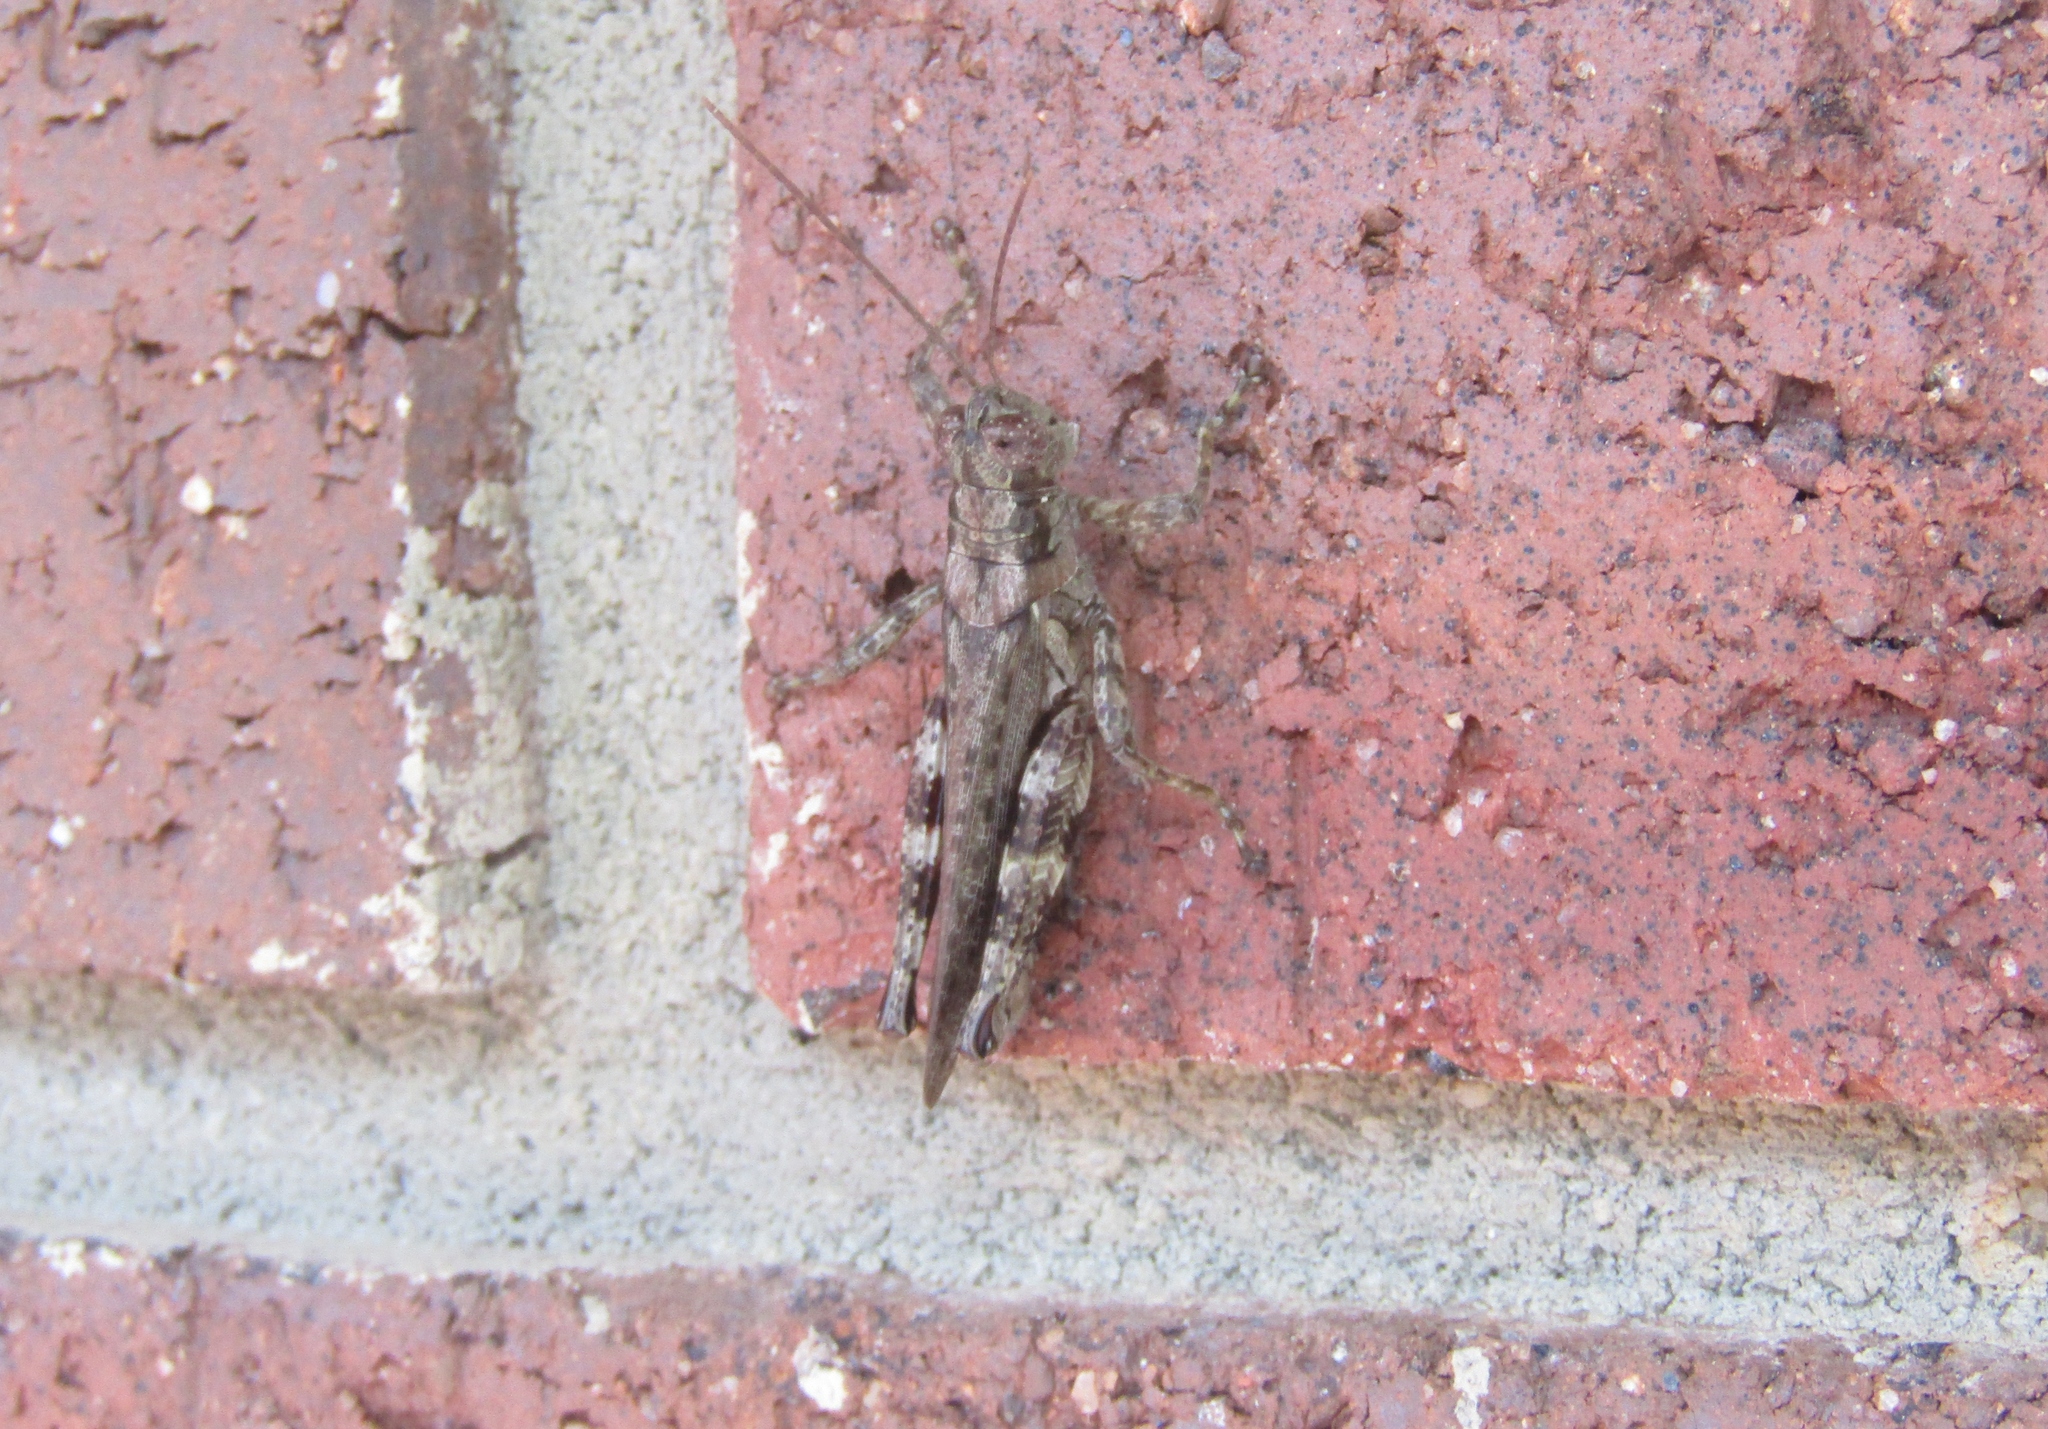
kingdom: Animalia
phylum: Arthropoda
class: Insecta
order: Orthoptera
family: Acrididae
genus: Melanoplus
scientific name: Melanoplus punctulatus
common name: Pine-tree spur-throat grasshopper
